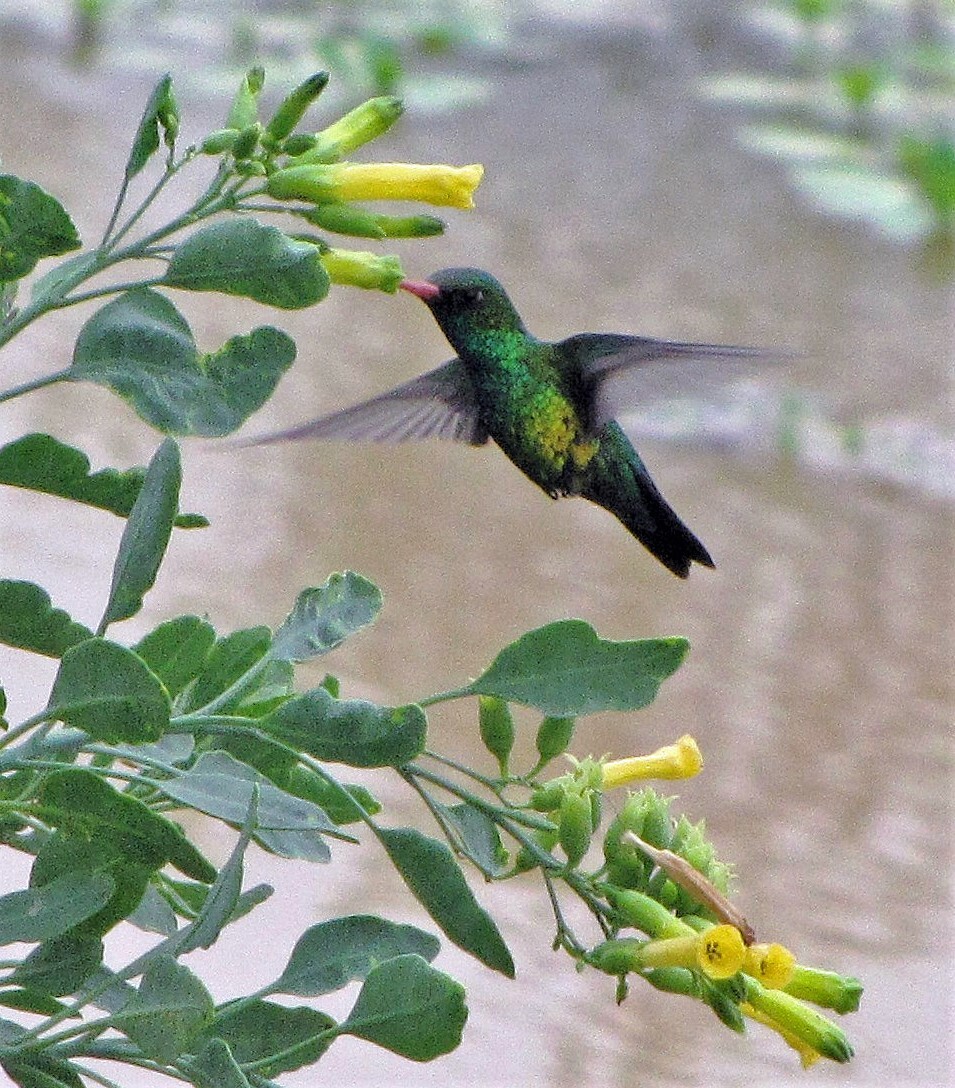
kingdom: Animalia
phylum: Chordata
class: Aves
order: Apodiformes
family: Trochilidae
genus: Chlorostilbon
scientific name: Chlorostilbon lucidus
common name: Glittering-bellied emerald
